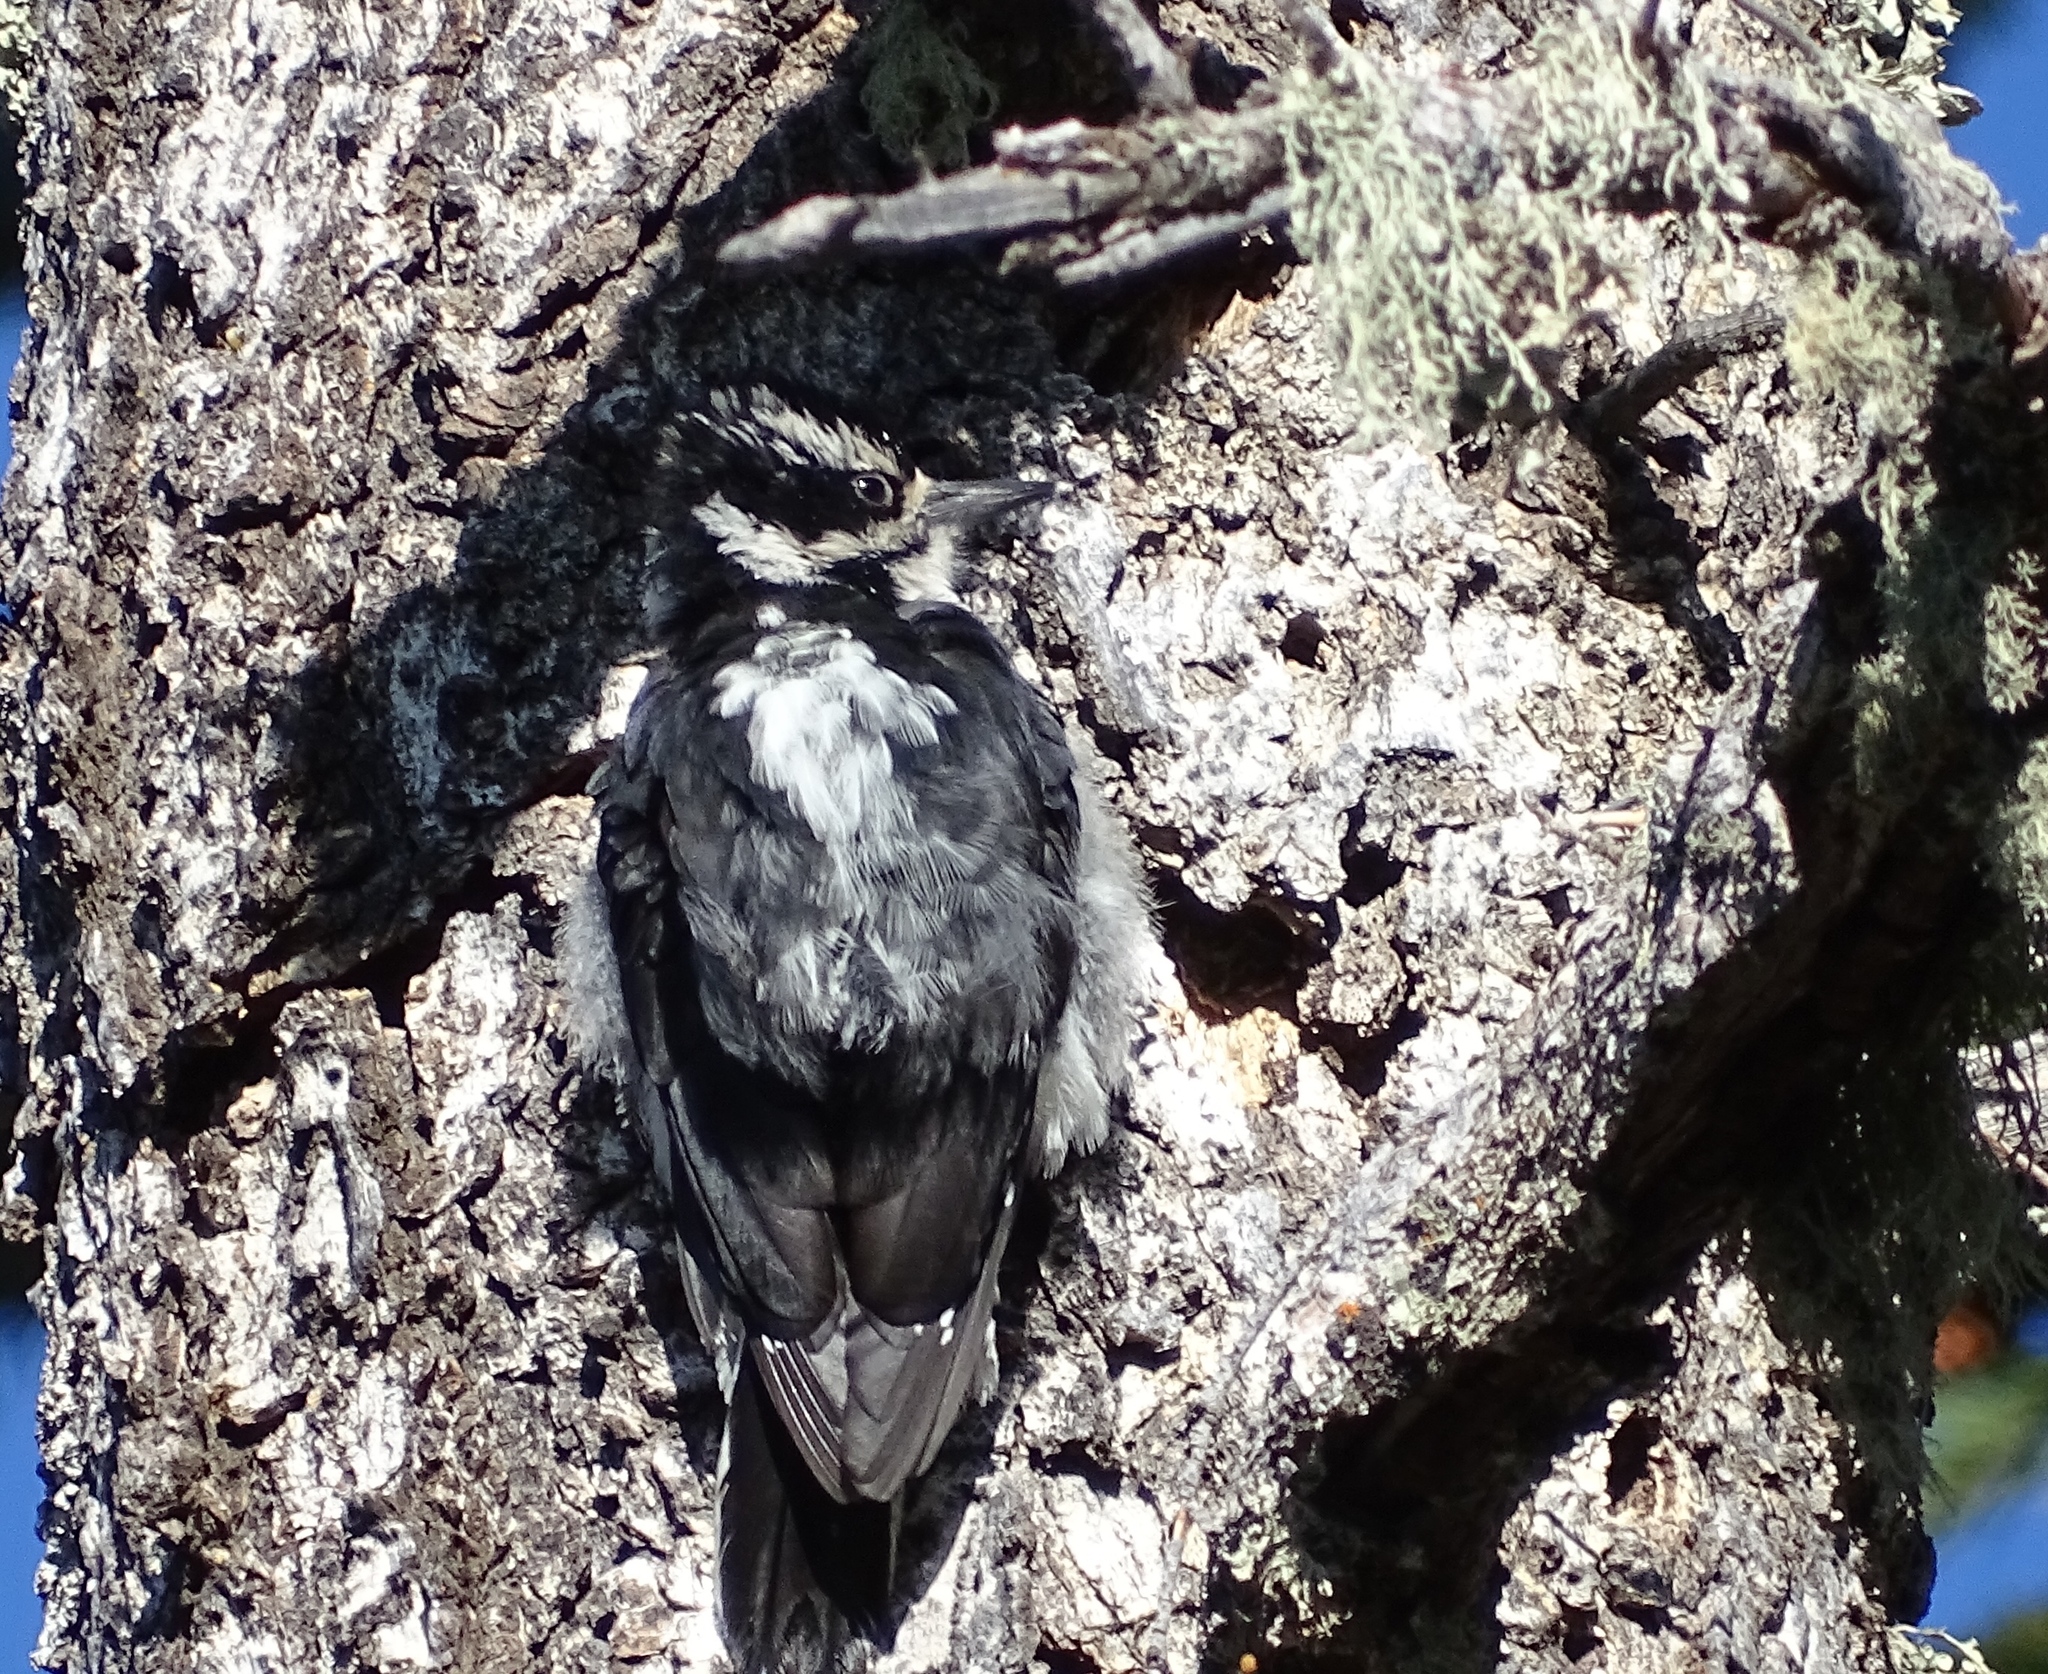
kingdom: Animalia
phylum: Chordata
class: Aves
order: Piciformes
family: Picidae
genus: Leuconotopicus
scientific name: Leuconotopicus villosus
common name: Hairy woodpecker
